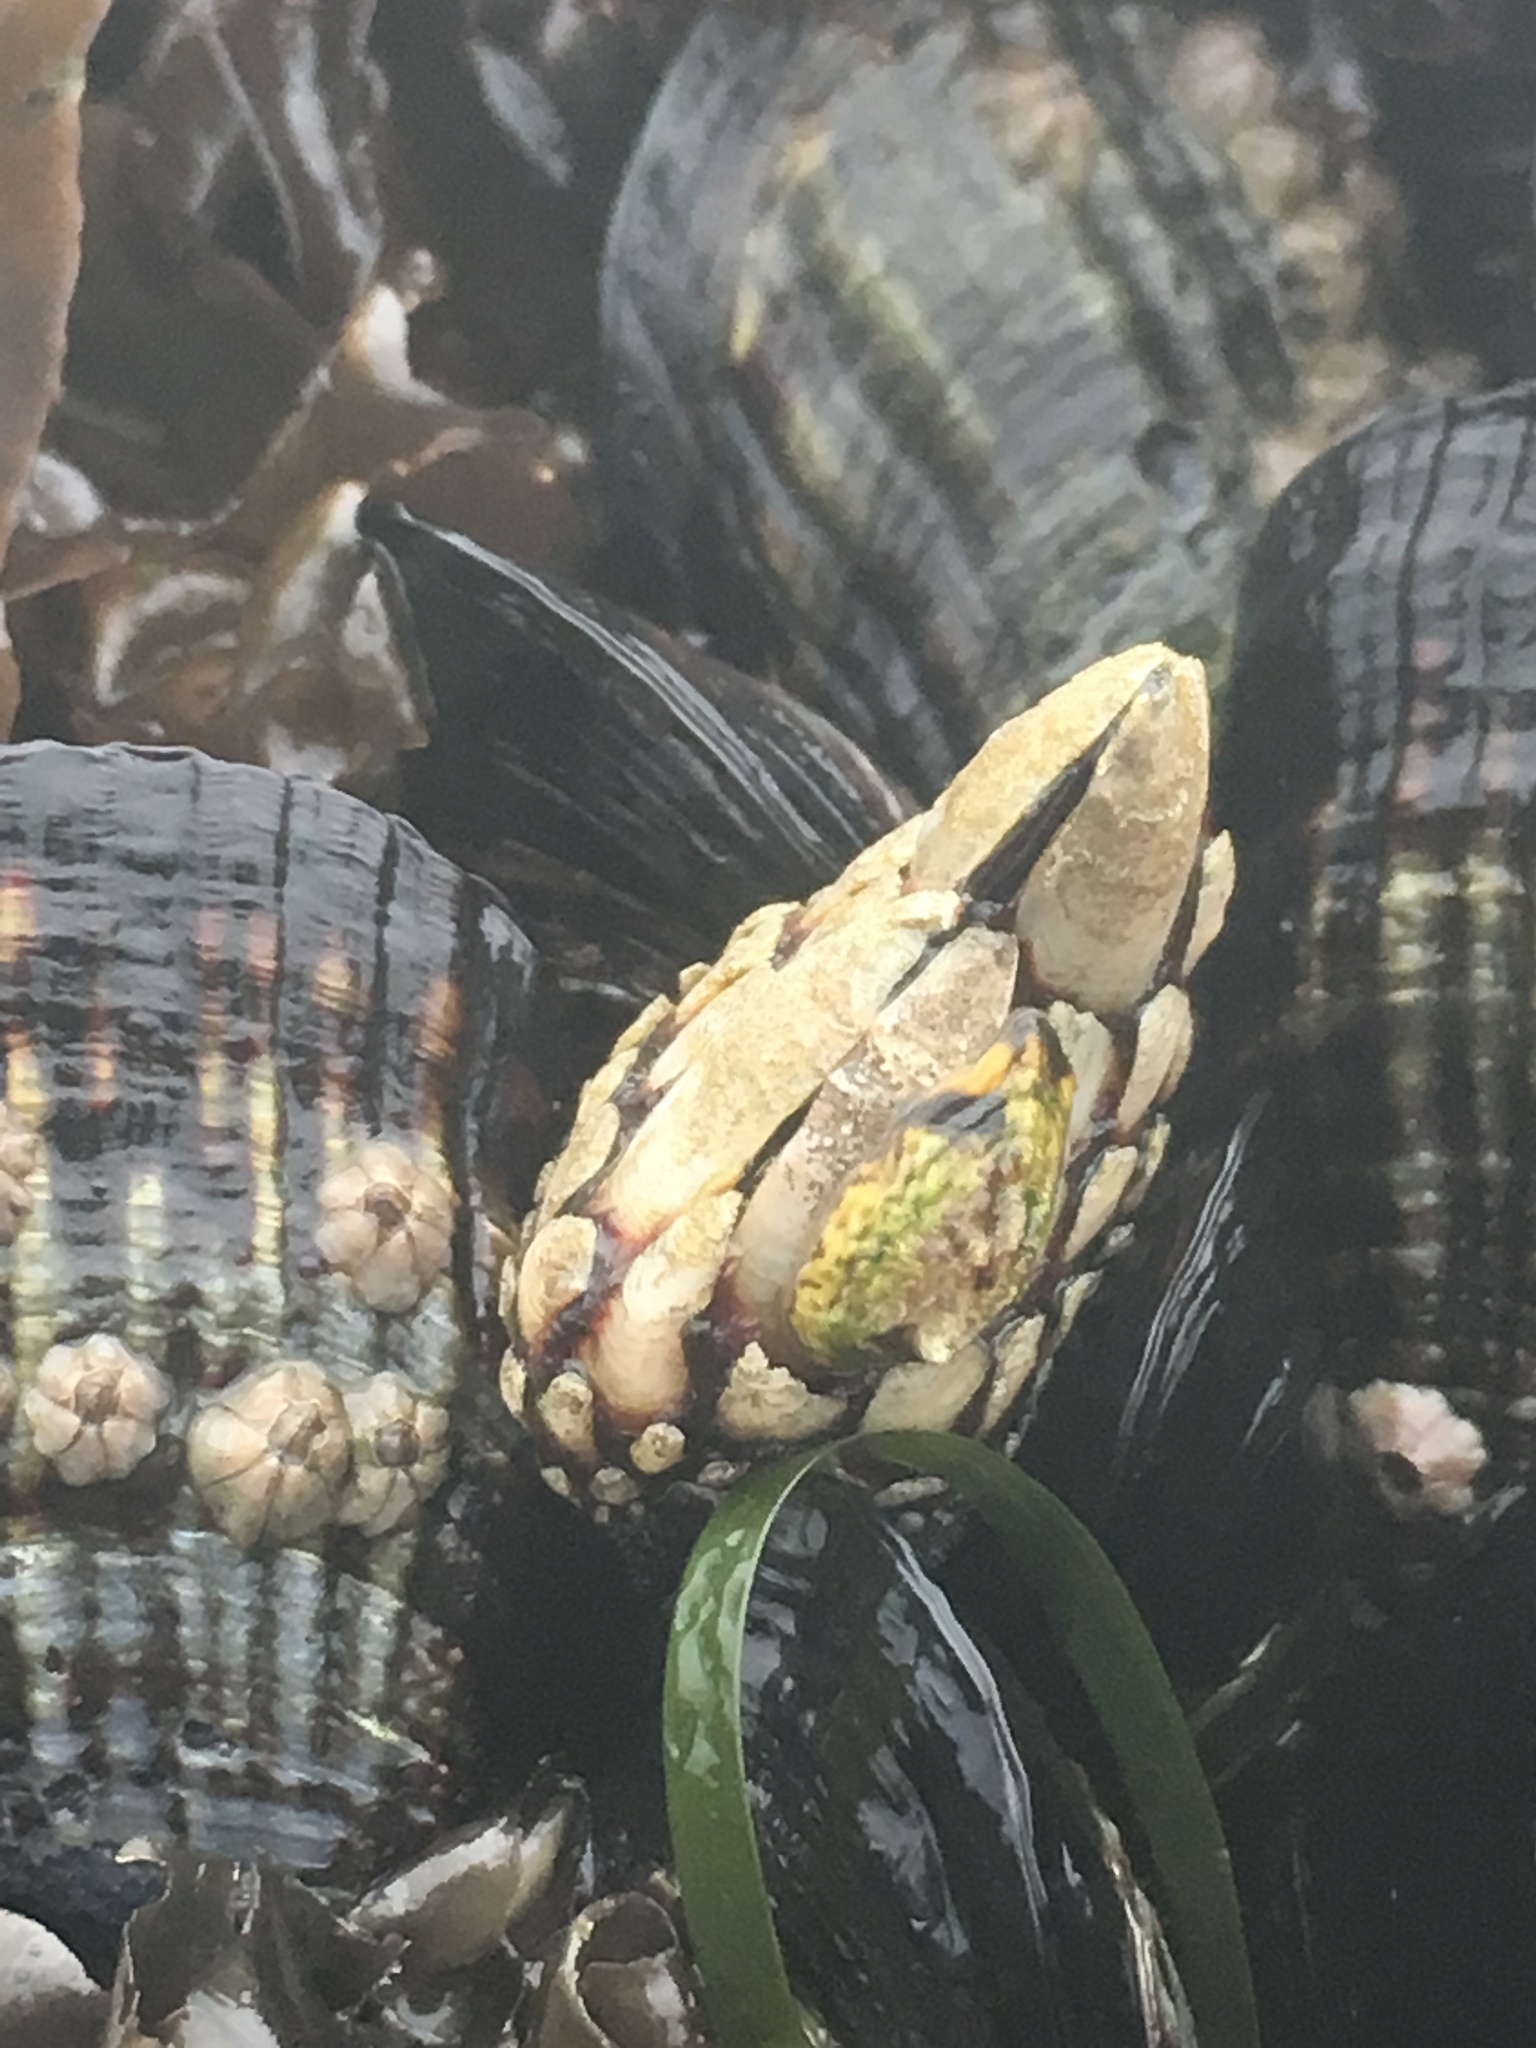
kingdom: Animalia
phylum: Arthropoda
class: Maxillopoda
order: Pedunculata
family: Pollicipedidae
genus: Pollicipes
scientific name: Pollicipes polymerus
